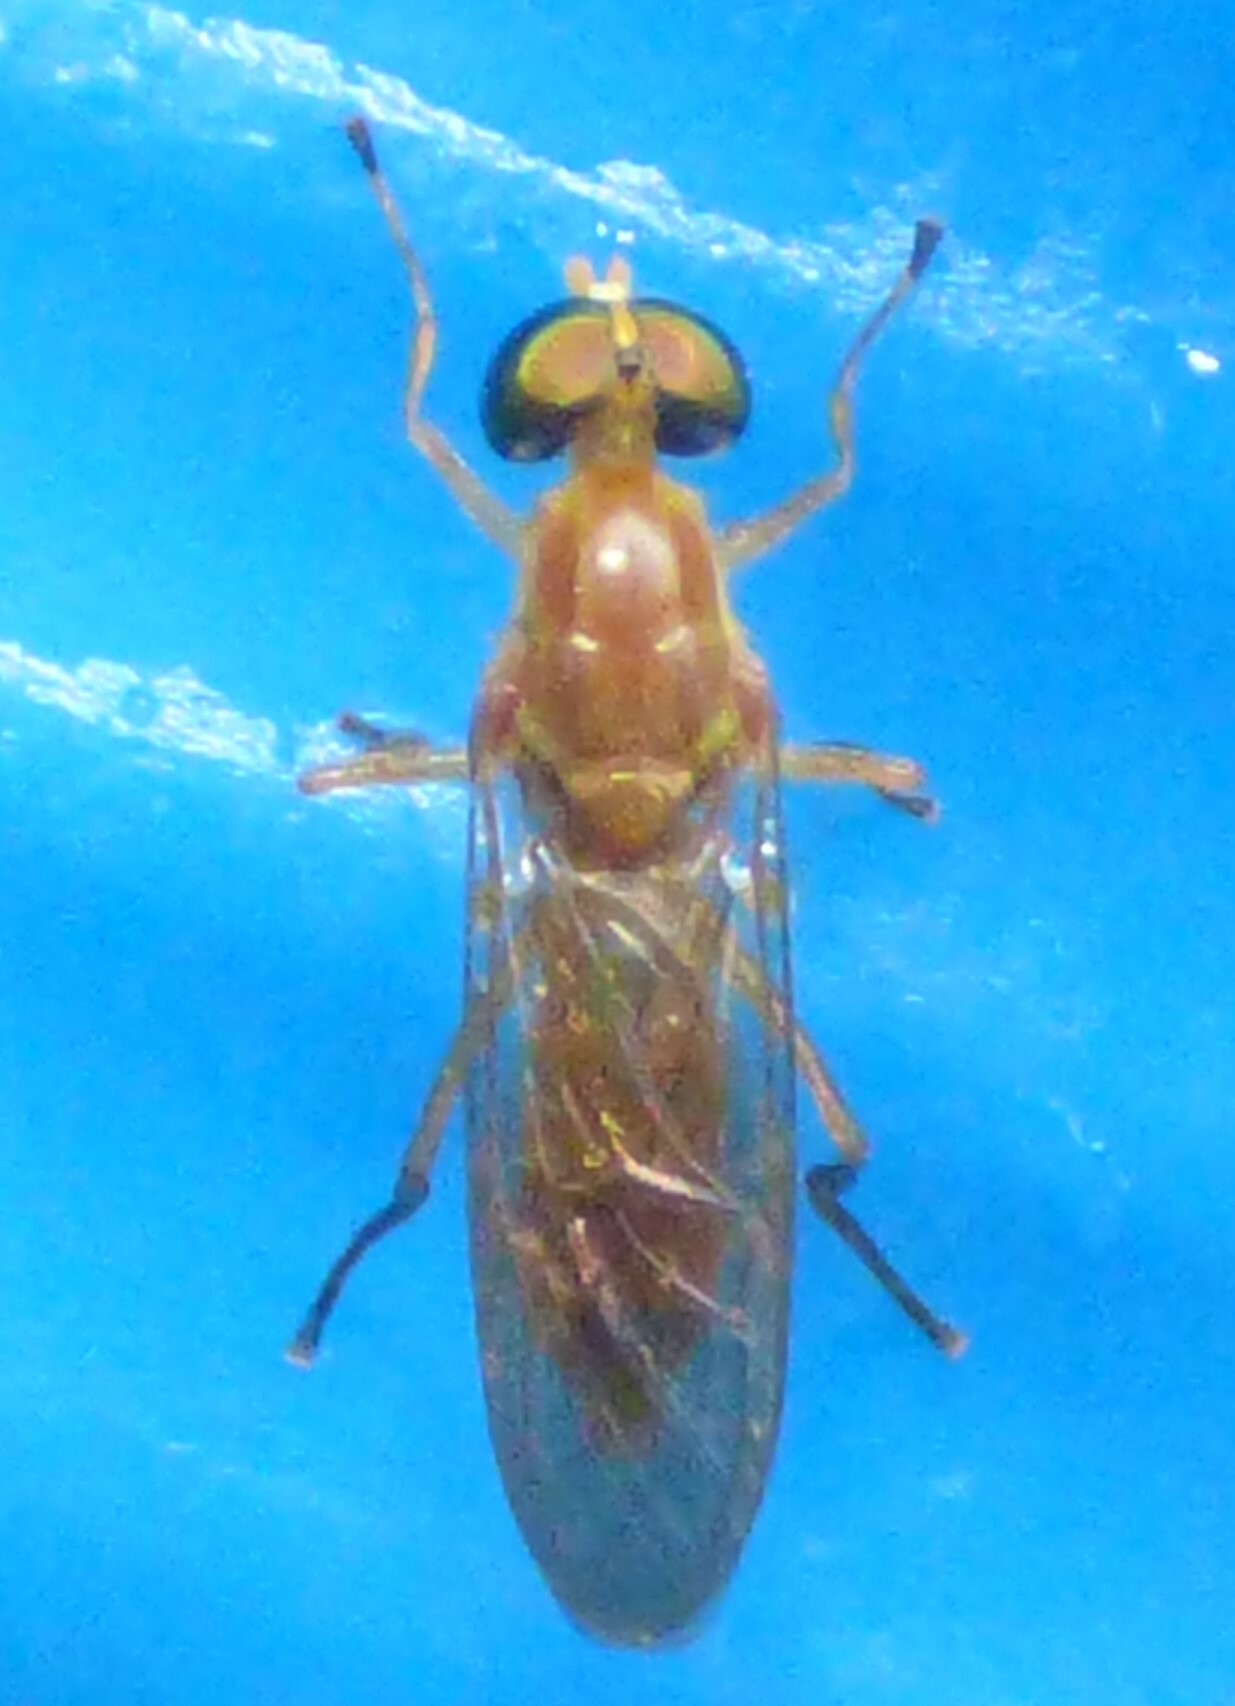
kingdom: Animalia
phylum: Arthropoda
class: Insecta
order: Diptera
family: Stratiomyidae
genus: Ptecticus
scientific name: Ptecticus trivittatus
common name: Compost fly
